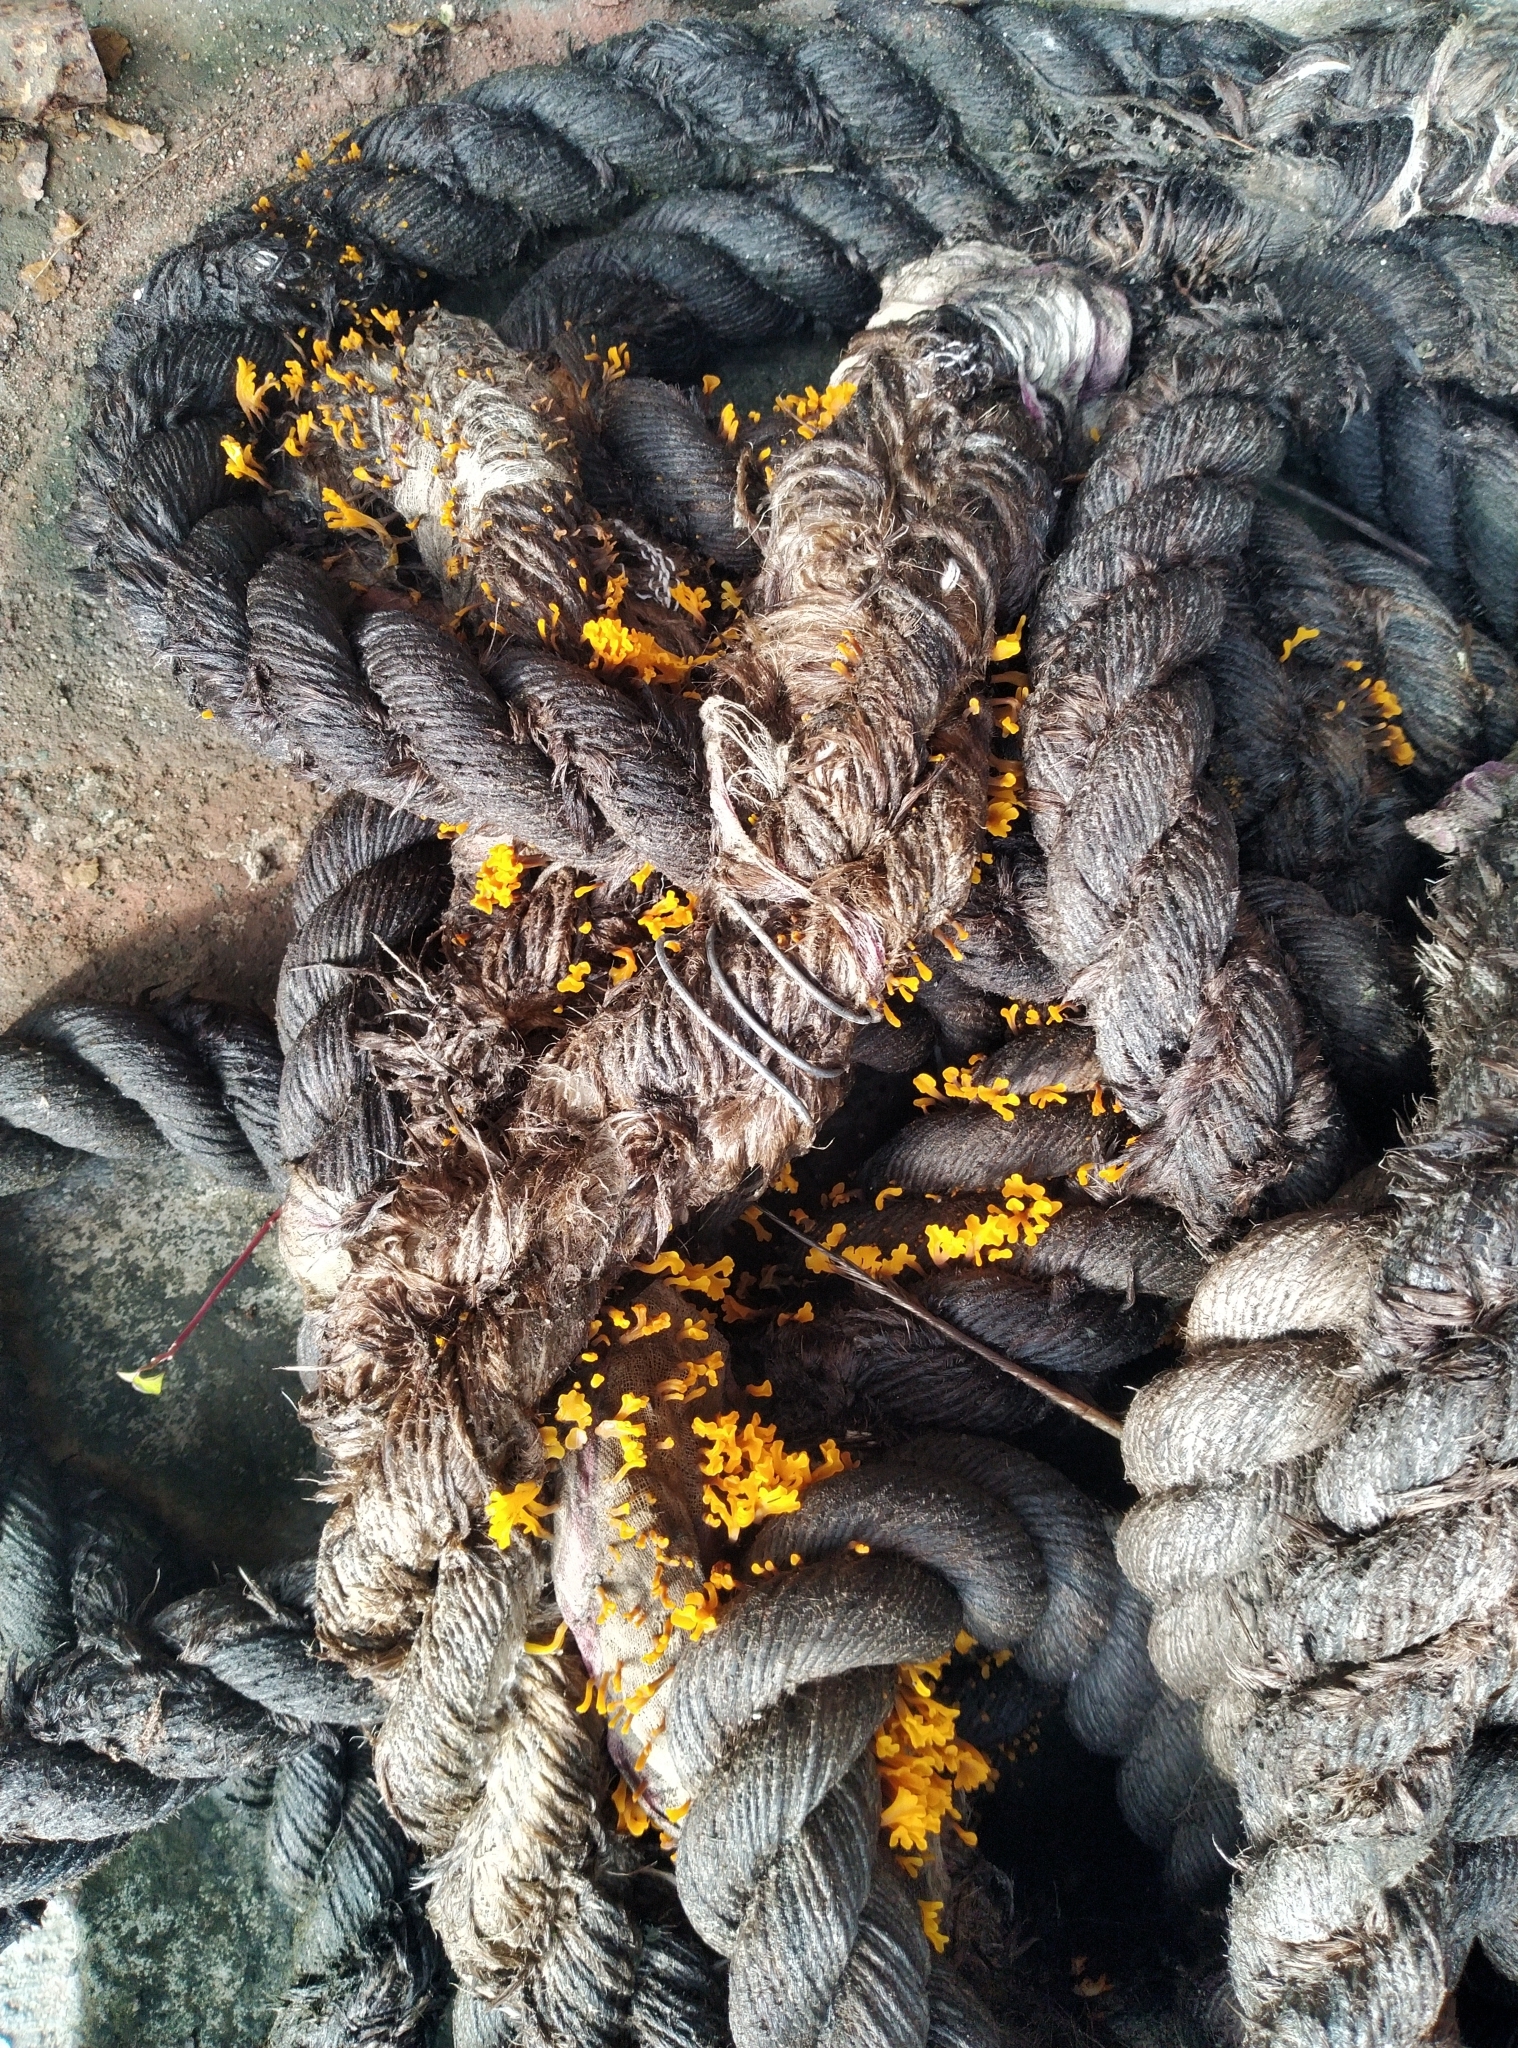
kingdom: Fungi
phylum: Basidiomycota
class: Dacrymycetes
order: Dacrymycetales
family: Dacrymycetaceae
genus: Dacrymyces
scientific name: Dacrymyces spathularius
